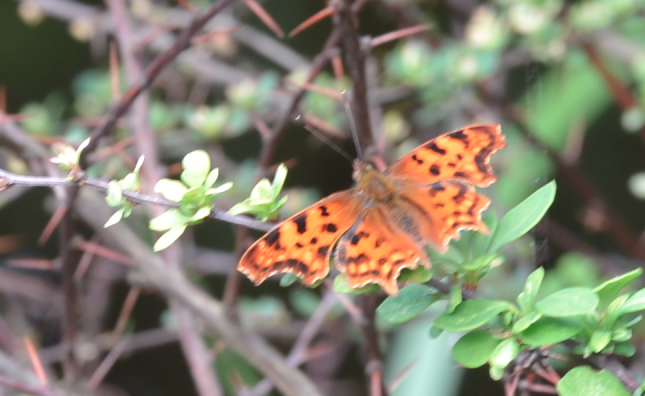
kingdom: Animalia
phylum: Arthropoda
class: Insecta
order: Lepidoptera
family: Nymphalidae
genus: Polygonia
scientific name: Polygonia c-album
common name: Comma
